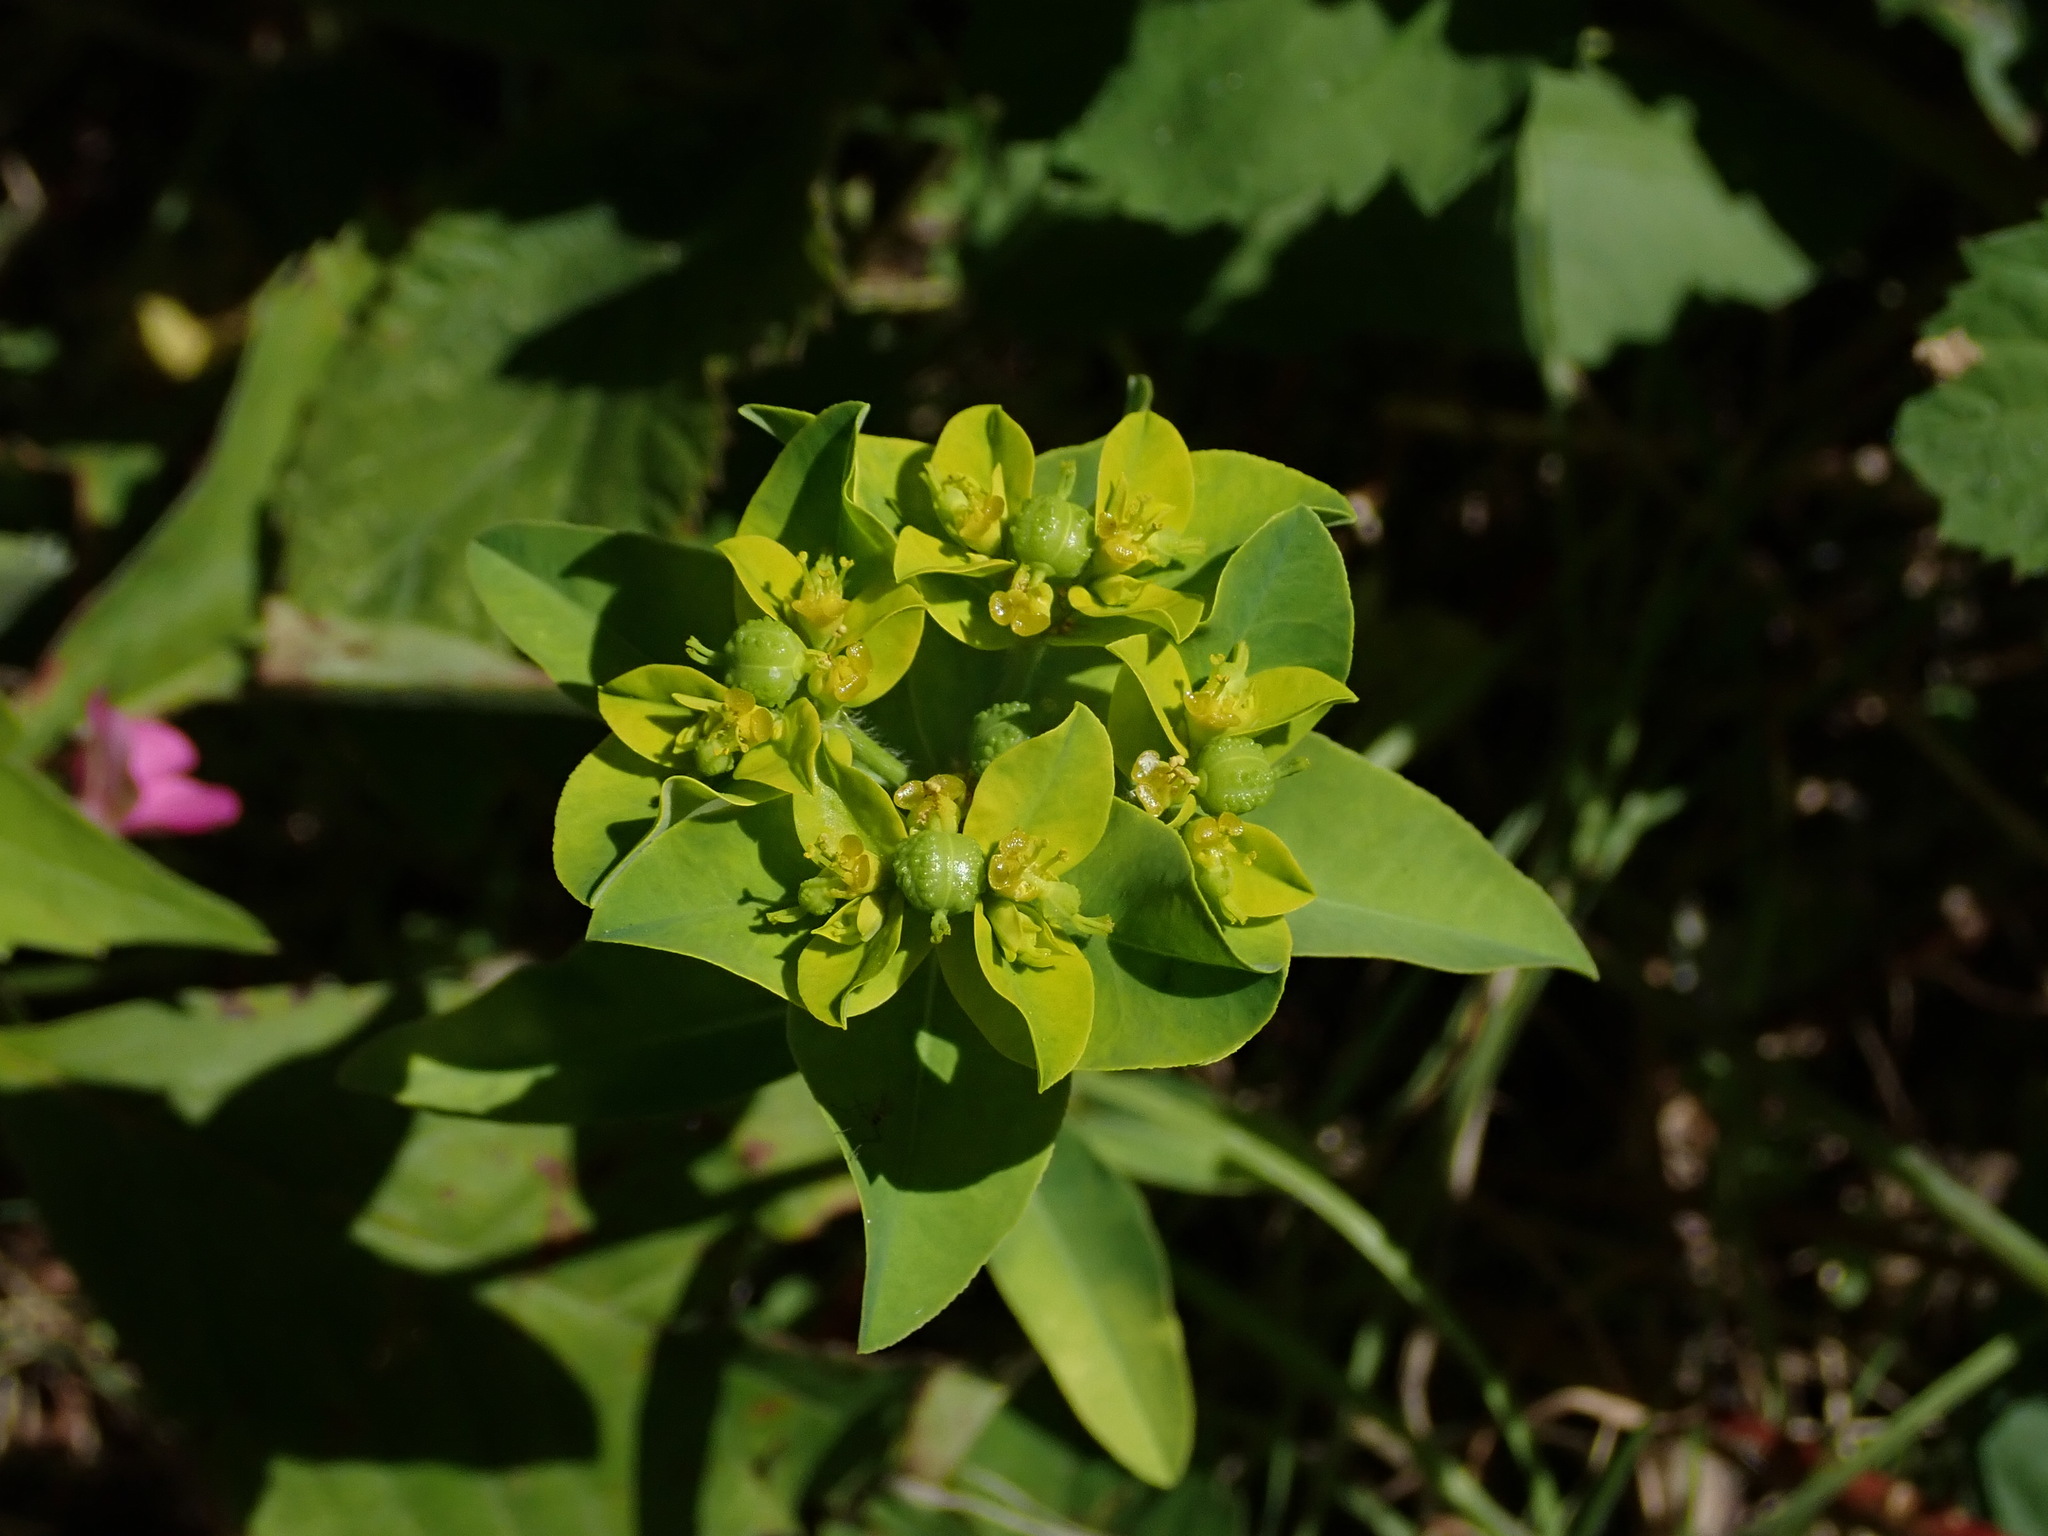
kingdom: Plantae
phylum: Tracheophyta
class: Magnoliopsida
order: Malpighiales
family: Euphorbiaceae
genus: Euphorbia
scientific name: Euphorbia oblongata
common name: Balkan spurge
